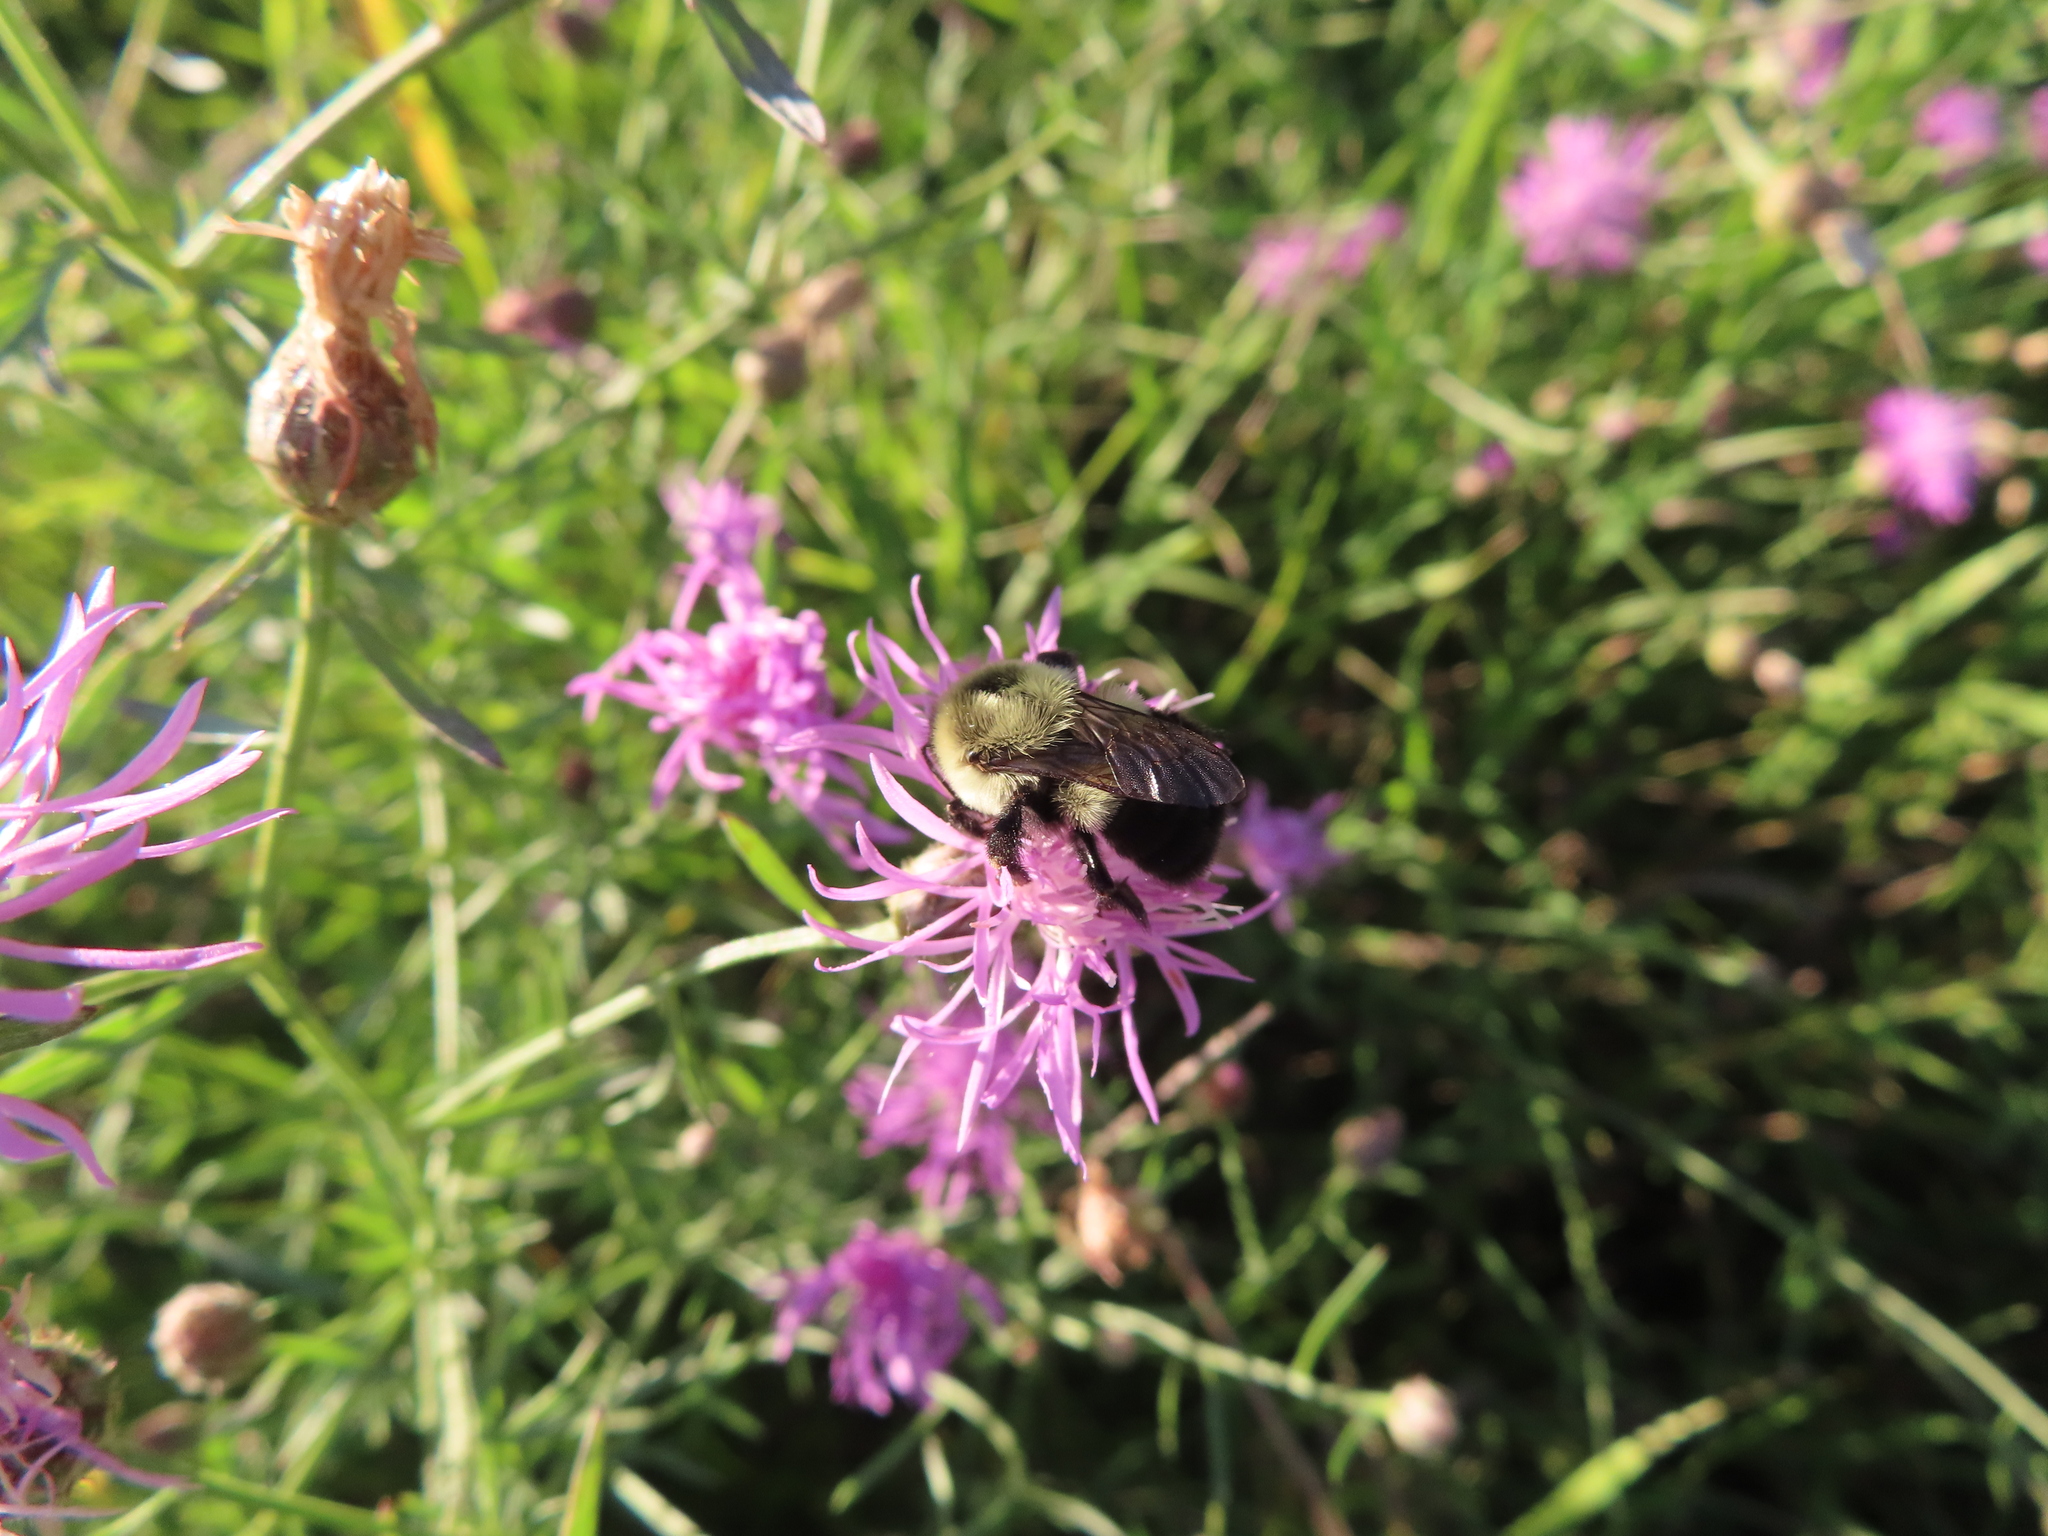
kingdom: Animalia
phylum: Arthropoda
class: Insecta
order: Hymenoptera
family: Apidae
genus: Bombus
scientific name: Bombus impatiens
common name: Common eastern bumble bee
